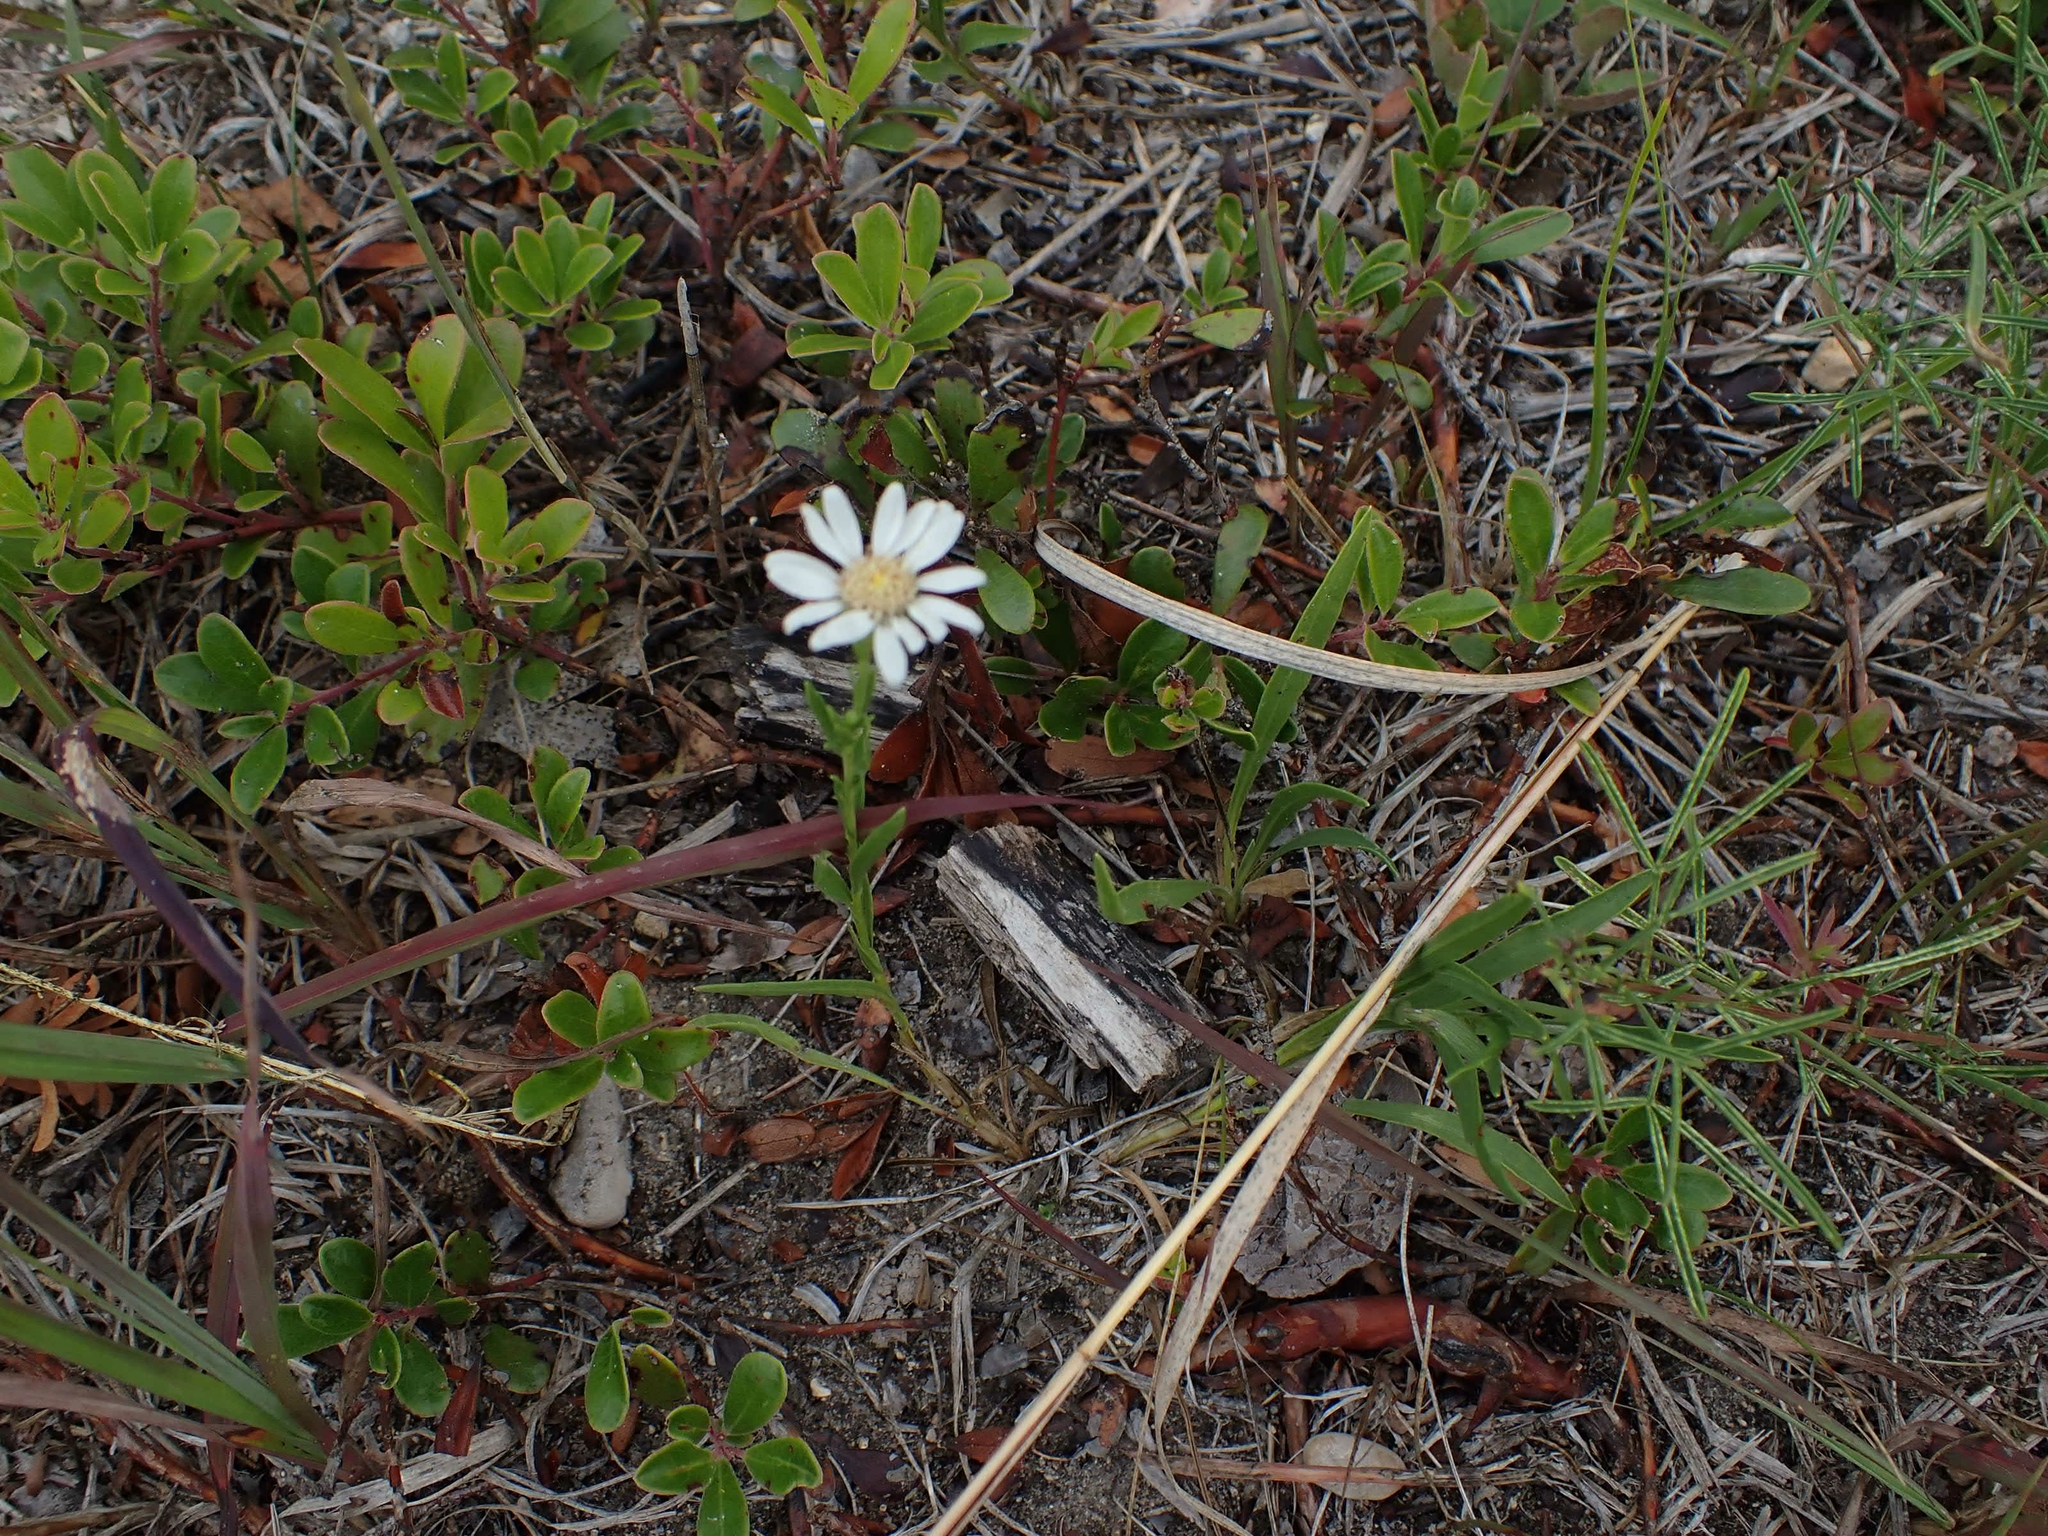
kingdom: Plantae
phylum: Tracheophyta
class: Magnoliopsida
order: Asterales
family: Asteraceae
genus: Solidago
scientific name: Solidago ptarmicoides
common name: White flat-top goldenrod
